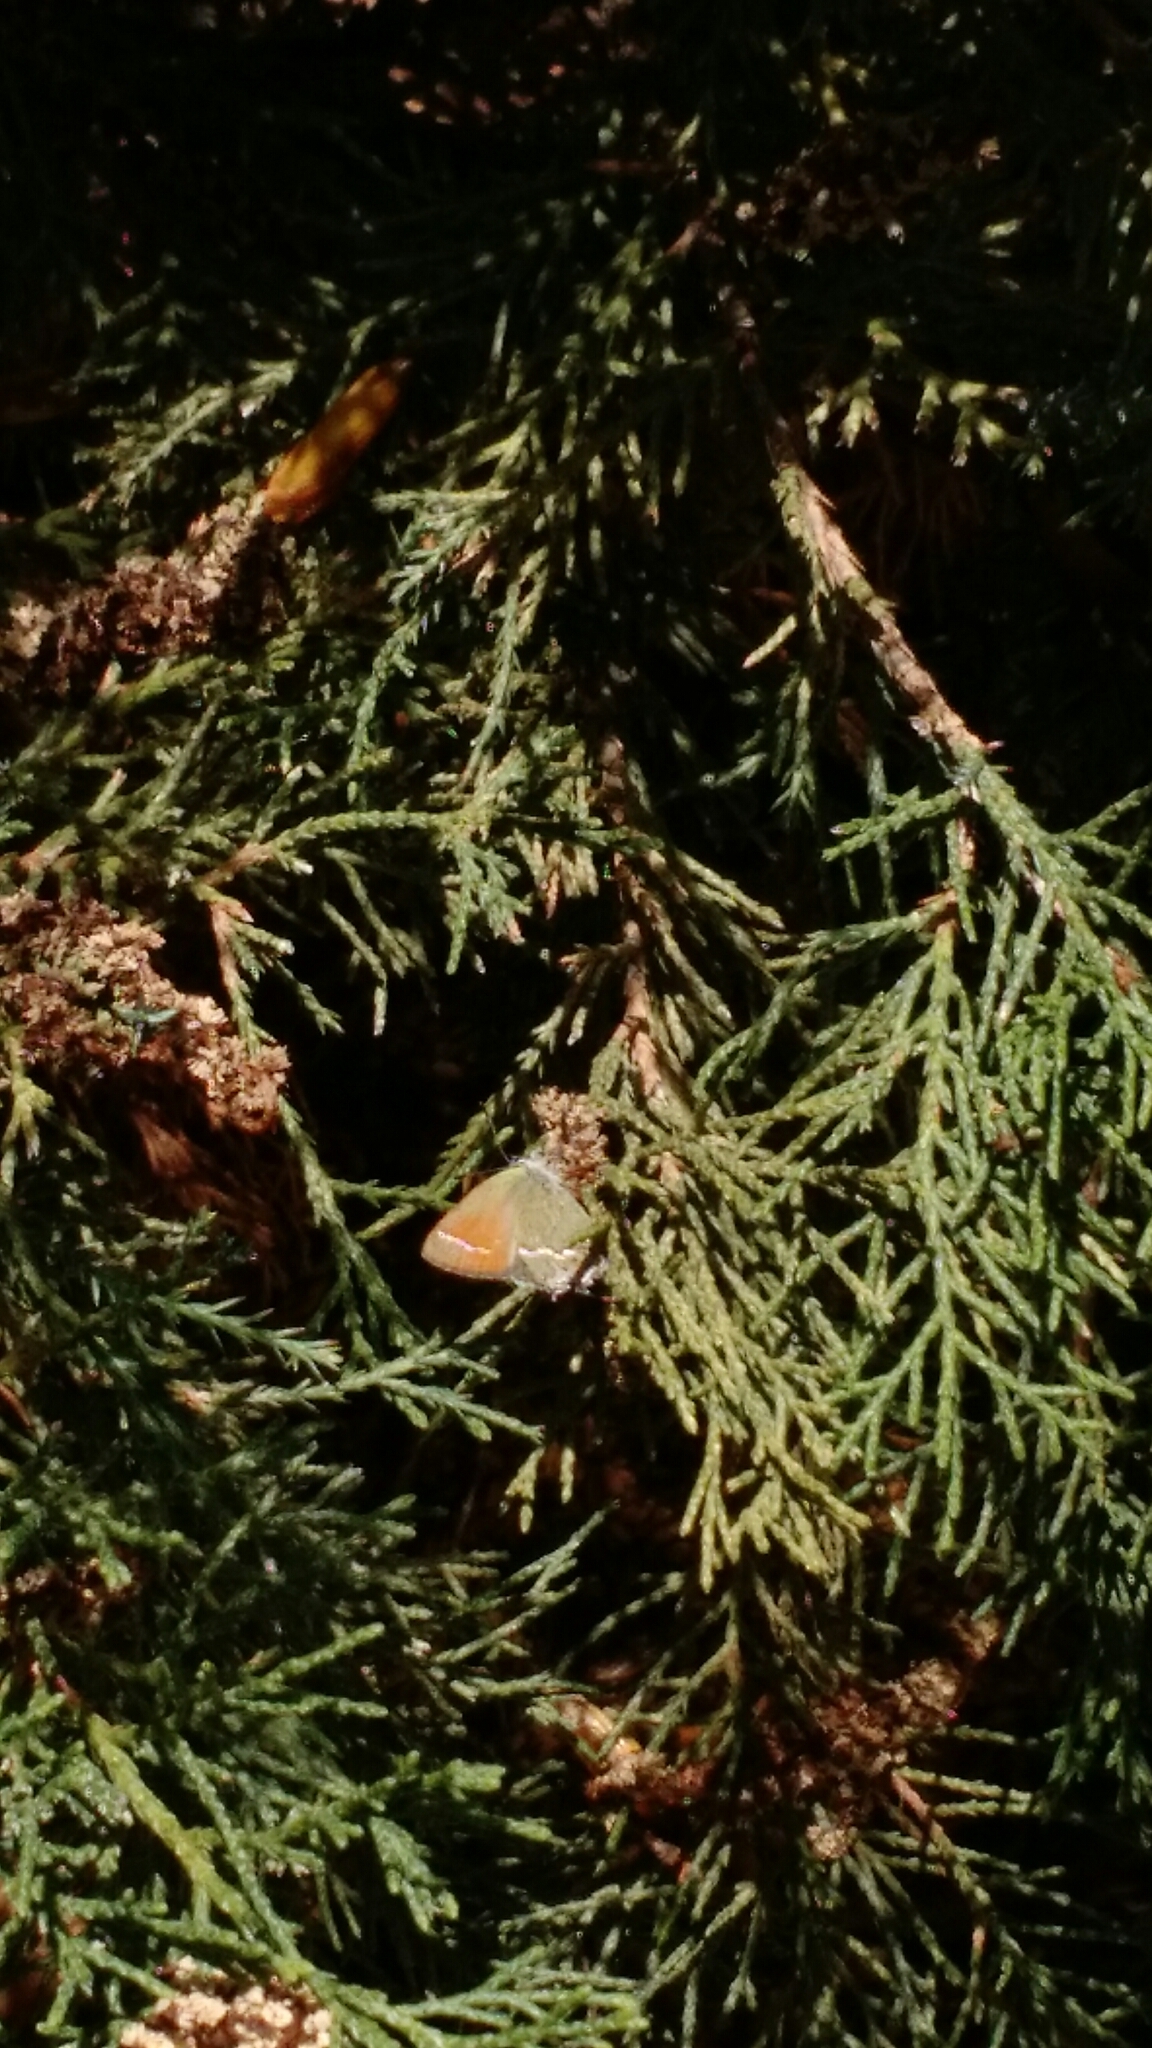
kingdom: Animalia
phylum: Arthropoda
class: Insecta
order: Lepidoptera
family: Lycaenidae
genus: Mitoura
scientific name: Mitoura siva
